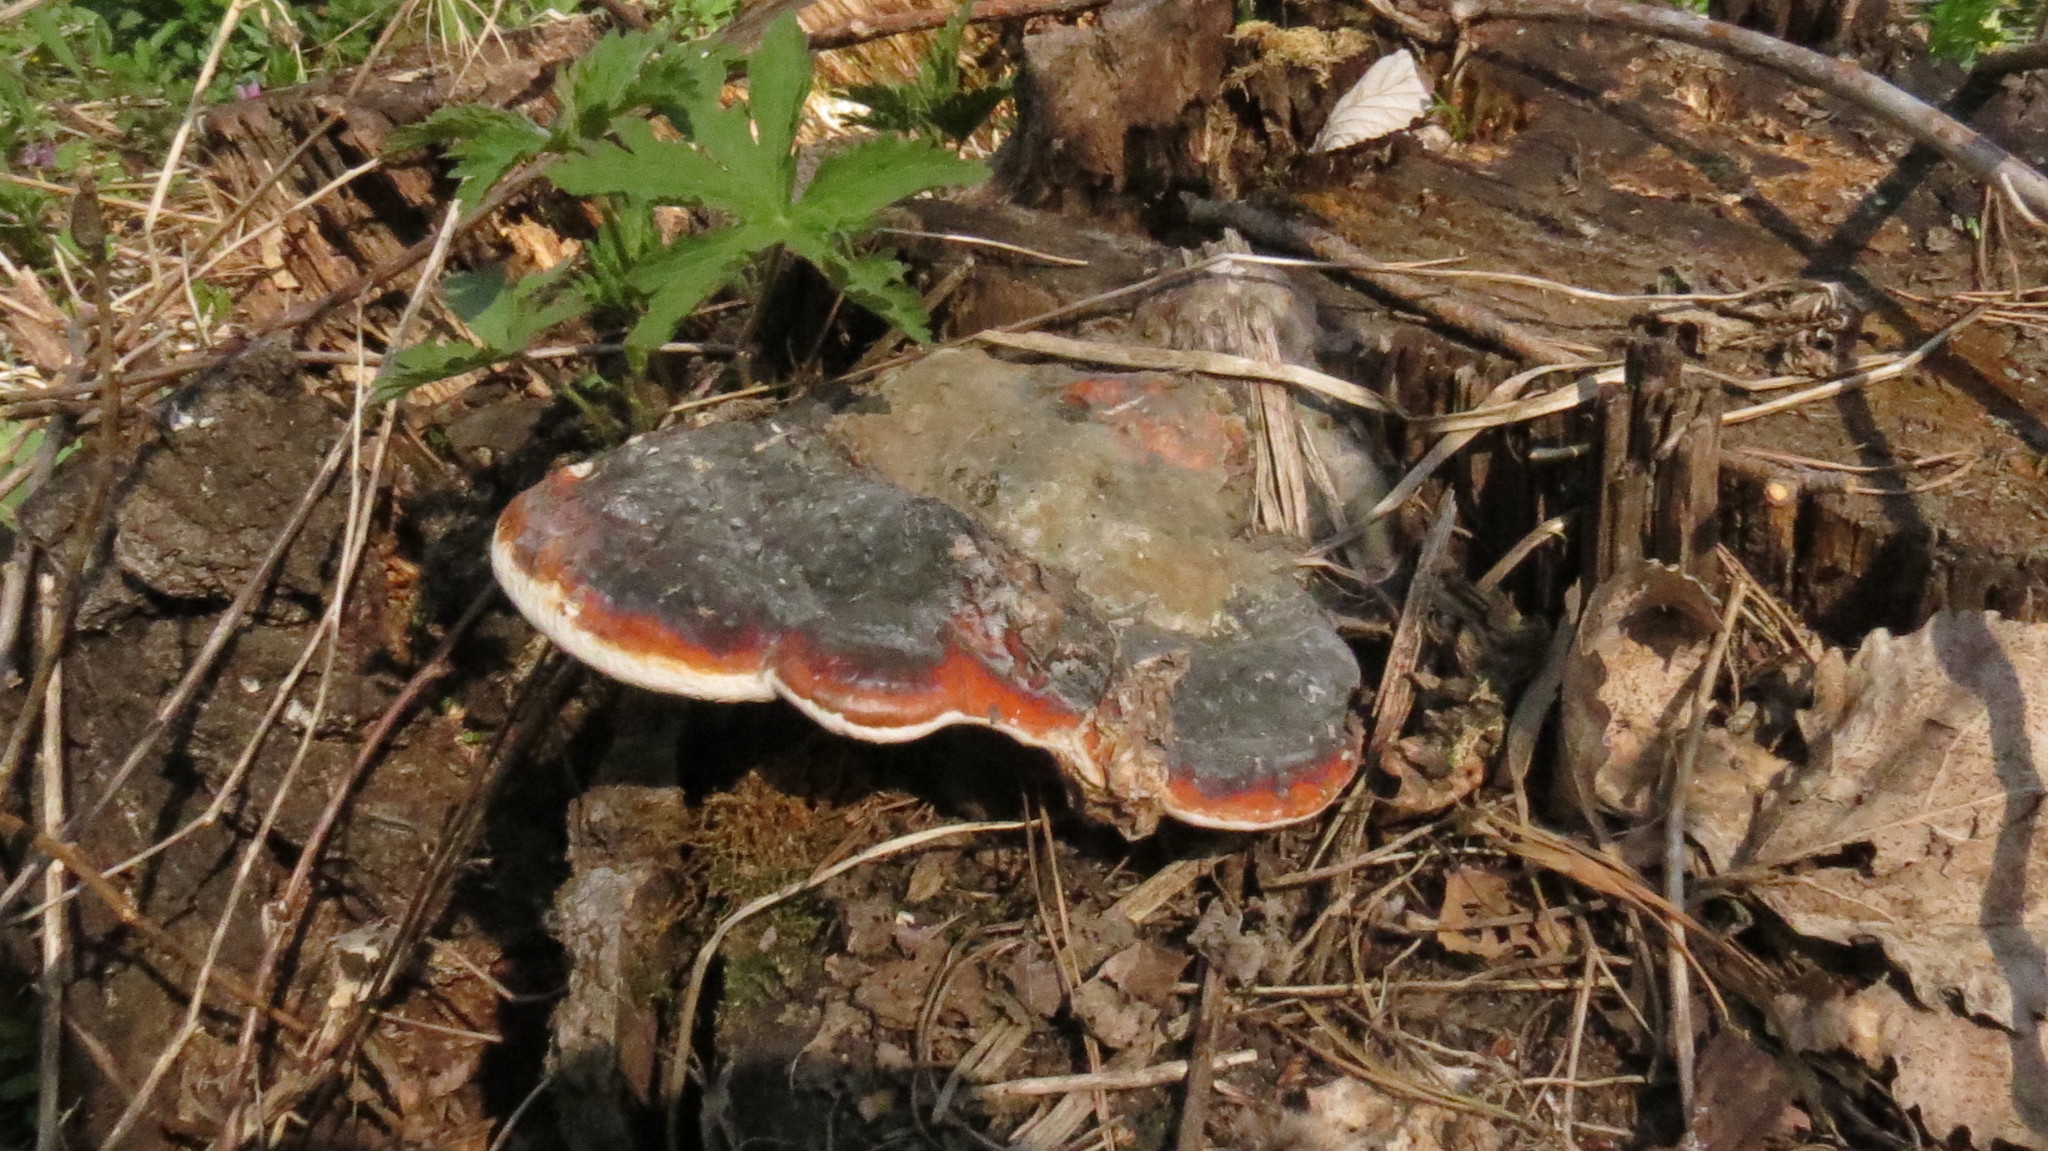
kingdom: Fungi
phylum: Basidiomycota
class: Agaricomycetes
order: Polyporales
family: Fomitopsidaceae
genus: Fomitopsis
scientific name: Fomitopsis pinicola
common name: Red-belted bracket
